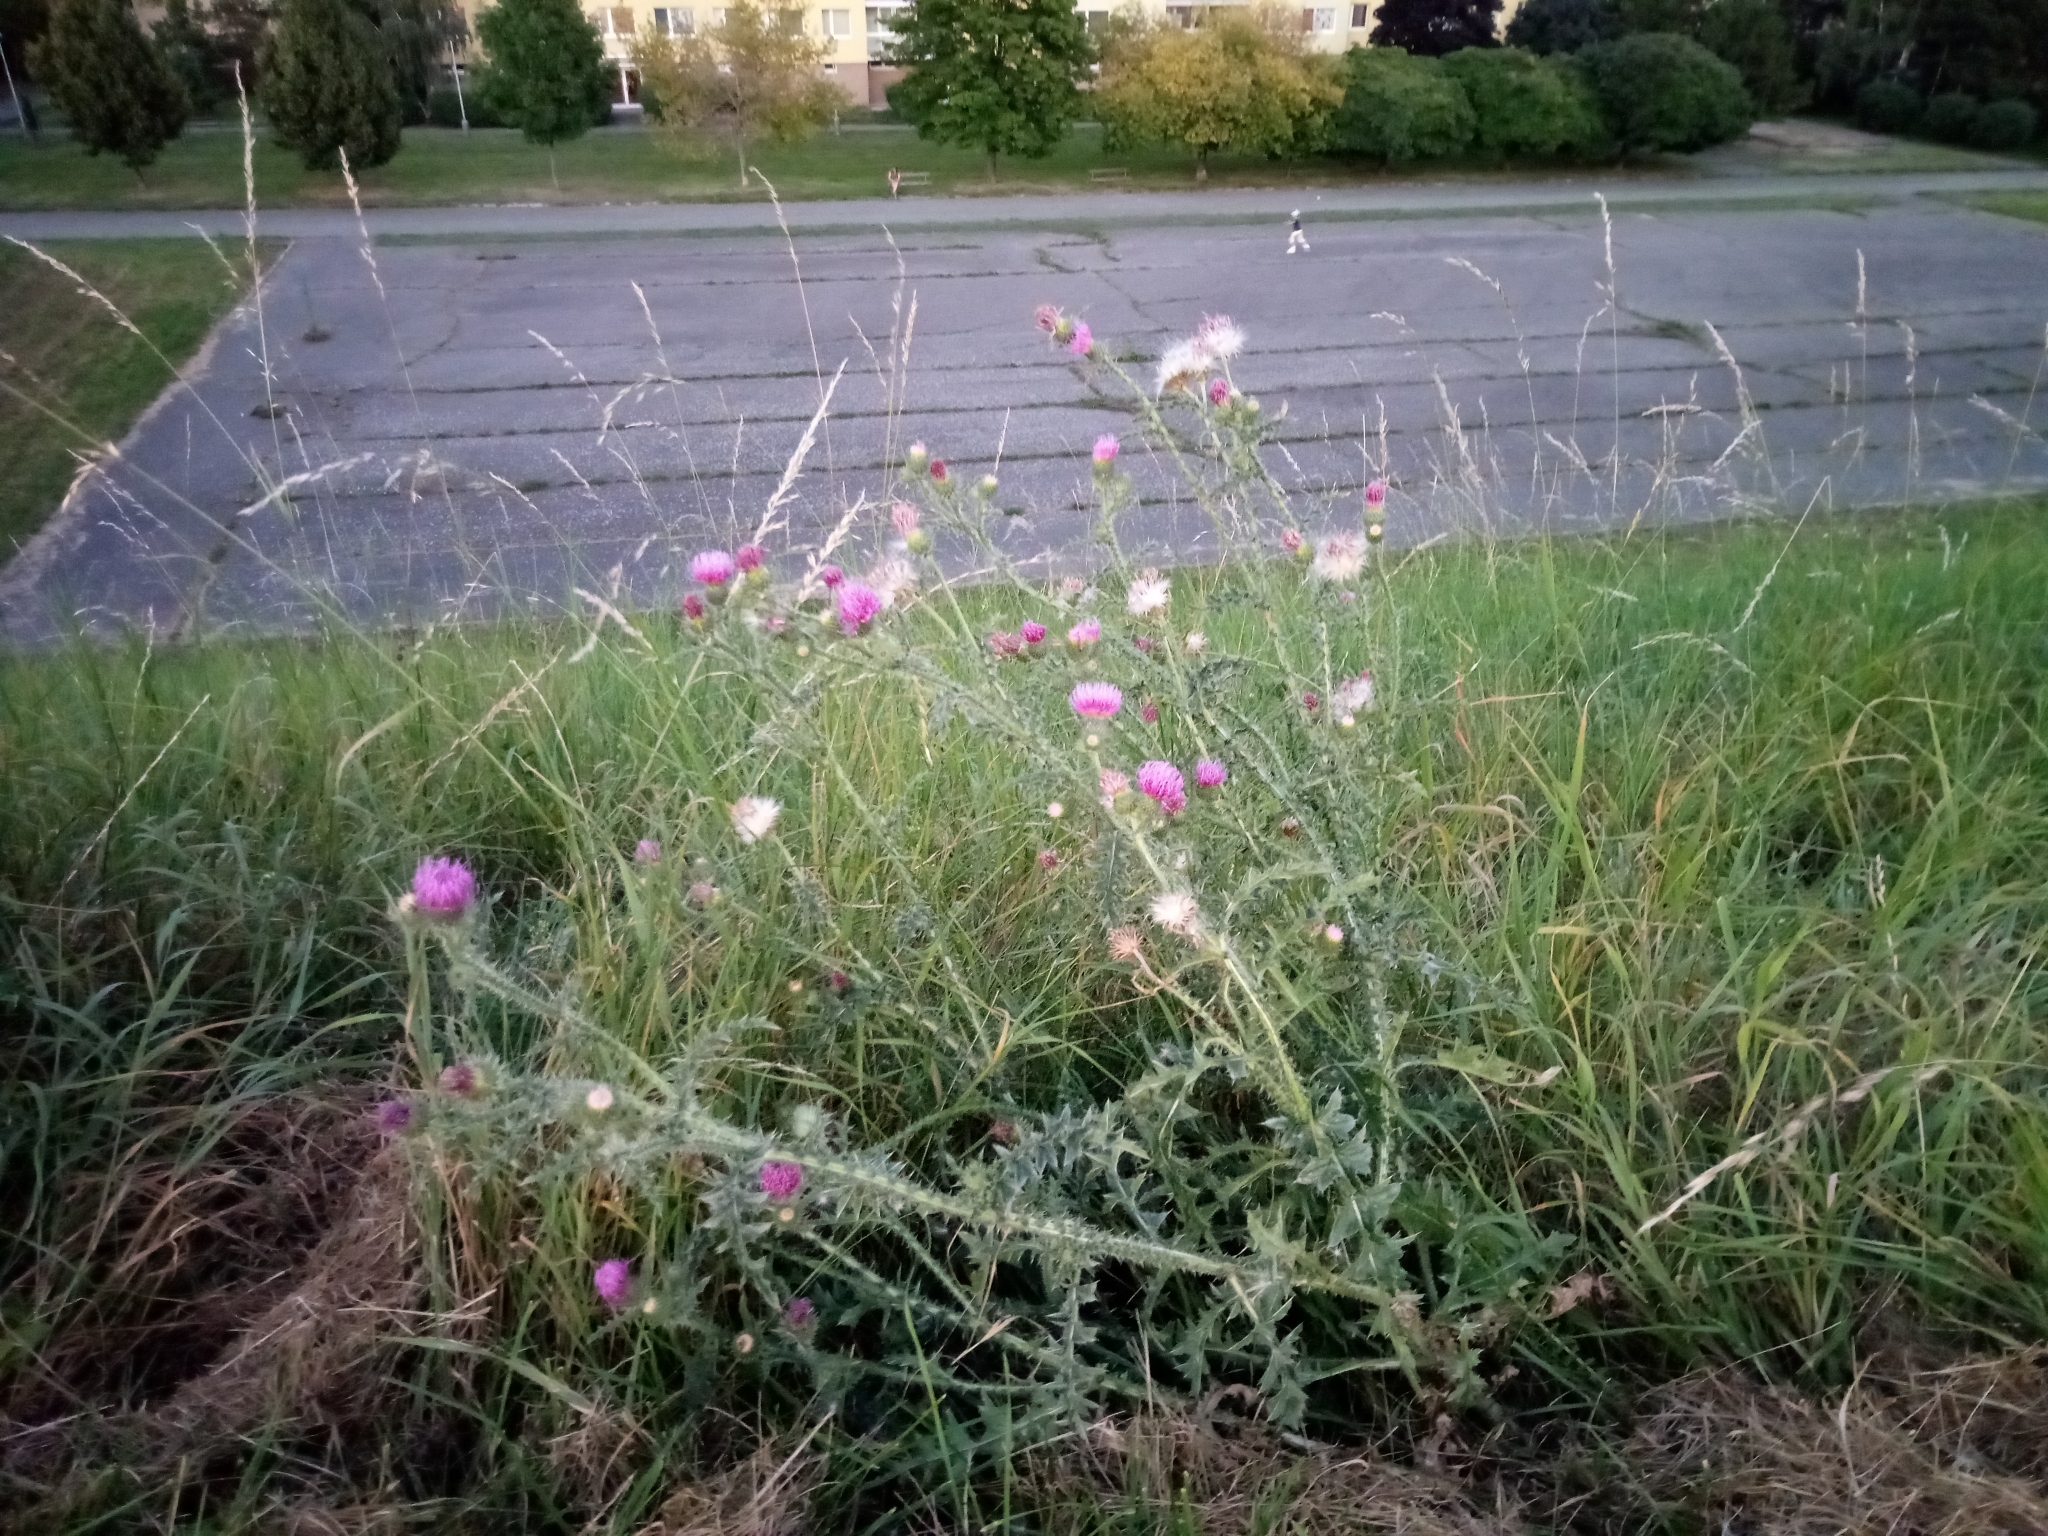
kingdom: Plantae
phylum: Tracheophyta
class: Magnoliopsida
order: Asterales
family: Asteraceae
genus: Carduus
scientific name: Carduus acanthoides
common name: Plumeless thistle
